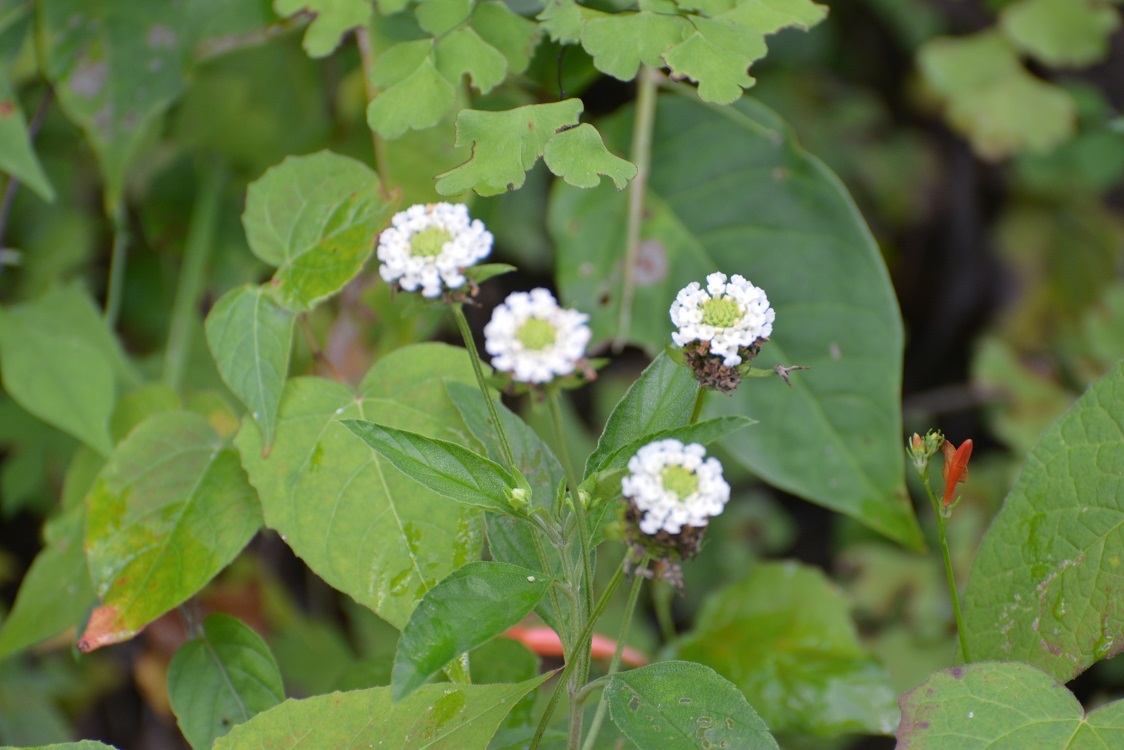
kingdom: Plantae
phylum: Tracheophyta
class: Magnoliopsida
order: Lamiales
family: Verbenaceae
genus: Lippia
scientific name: Lippia dulcis
